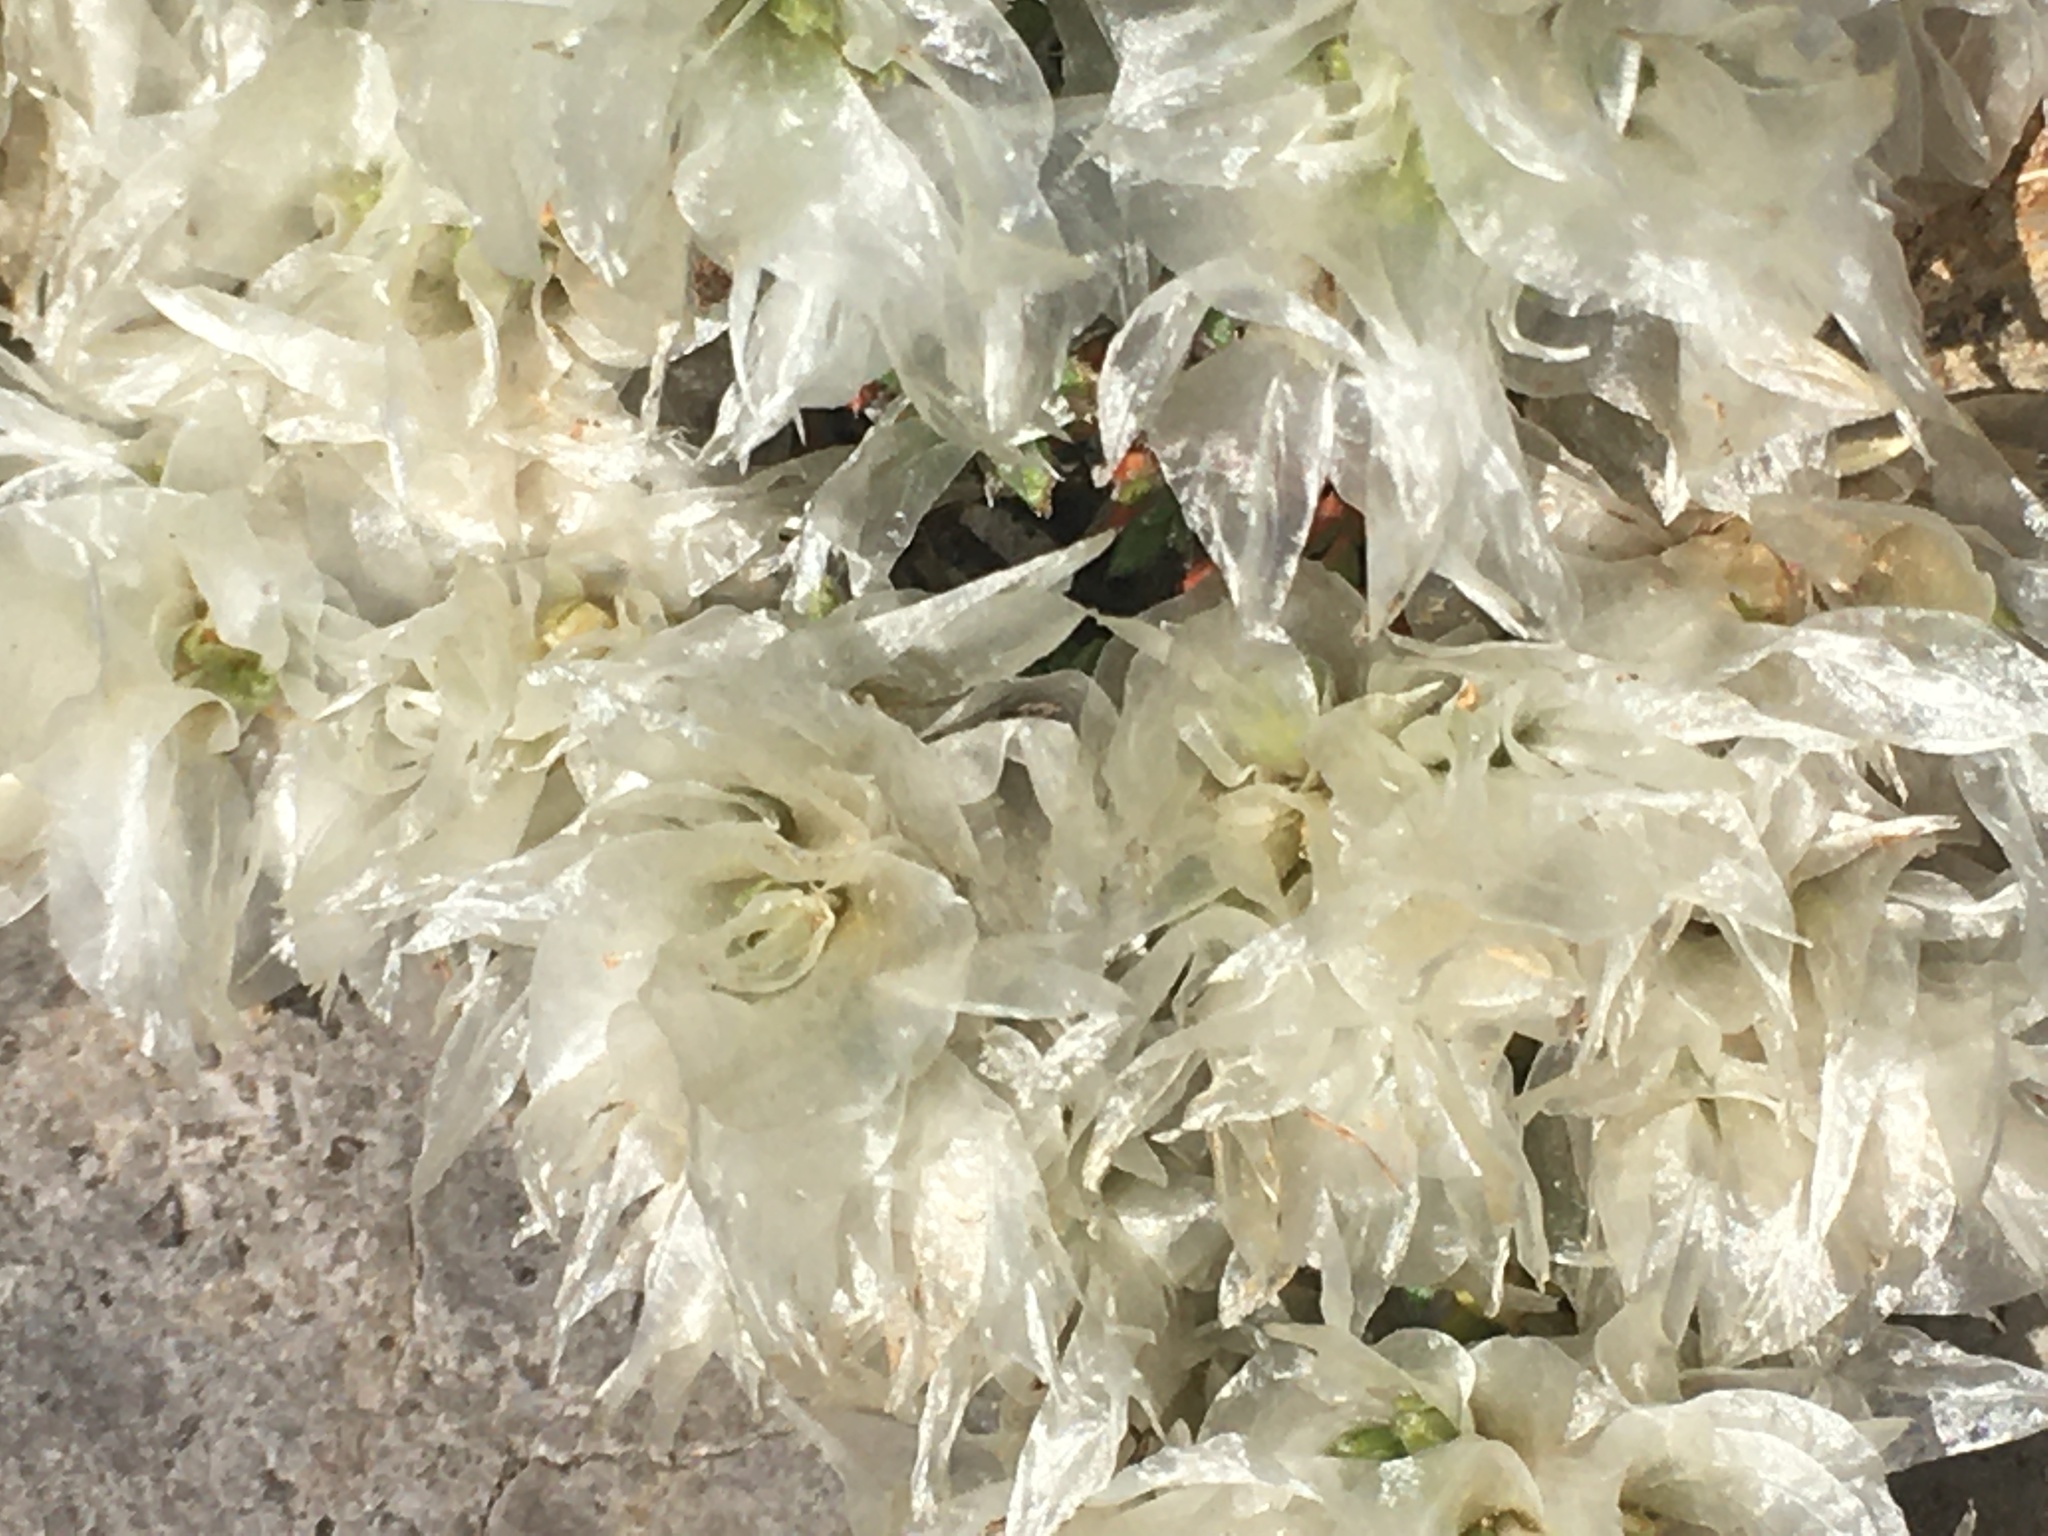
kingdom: Plantae
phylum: Tracheophyta
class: Magnoliopsida
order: Caryophyllales
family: Caryophyllaceae
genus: Paronychia
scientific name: Paronychia cephalotes
